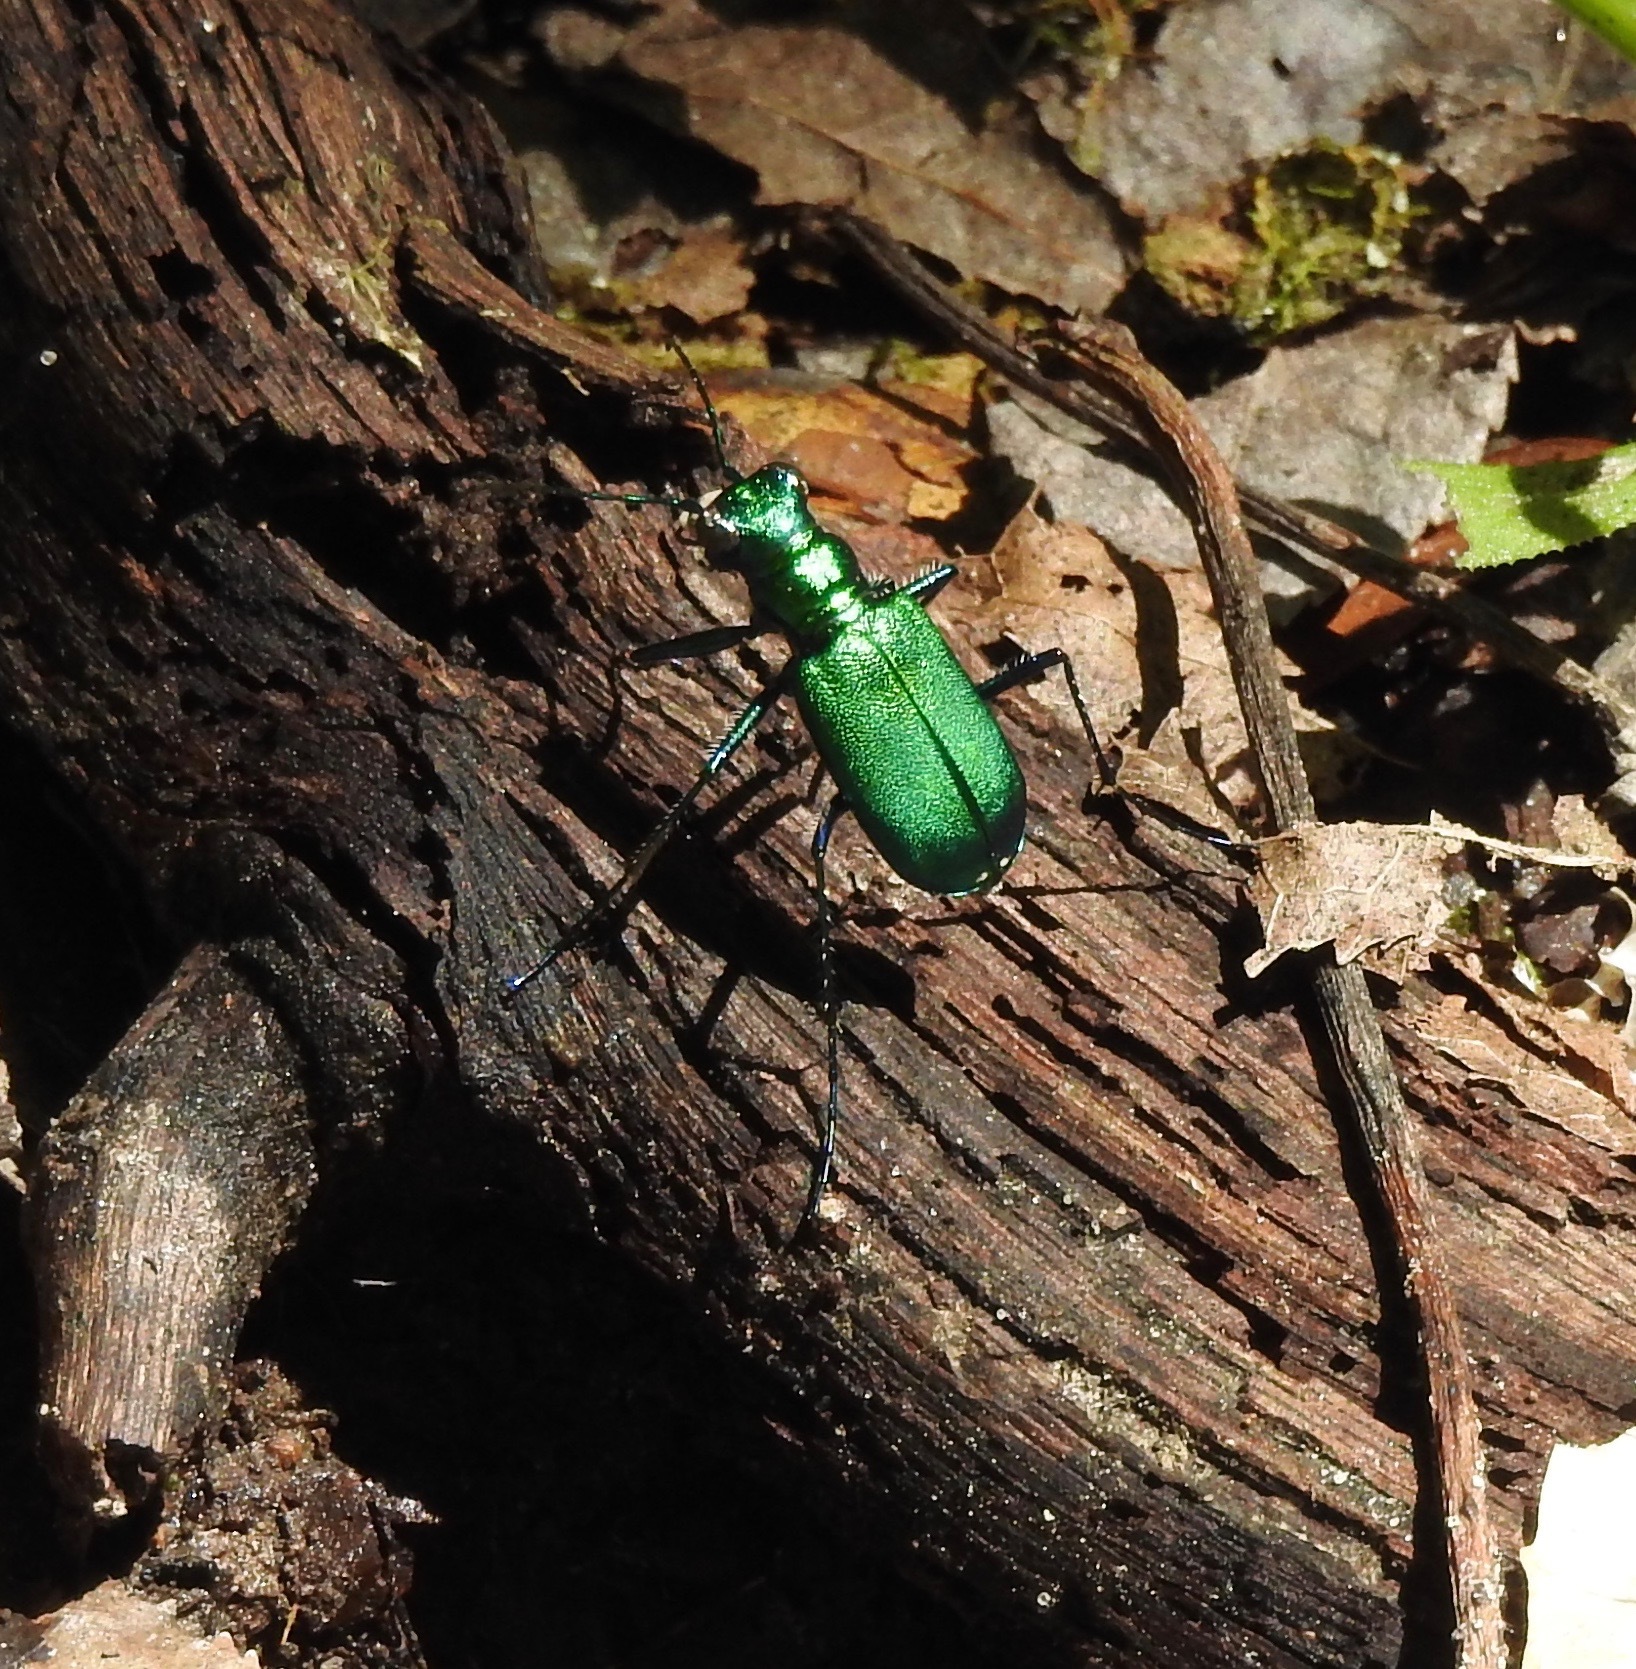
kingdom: Animalia
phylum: Arthropoda
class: Insecta
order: Coleoptera
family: Carabidae
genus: Cicindela
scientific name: Cicindela sexguttata
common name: Six-spotted tiger beetle
